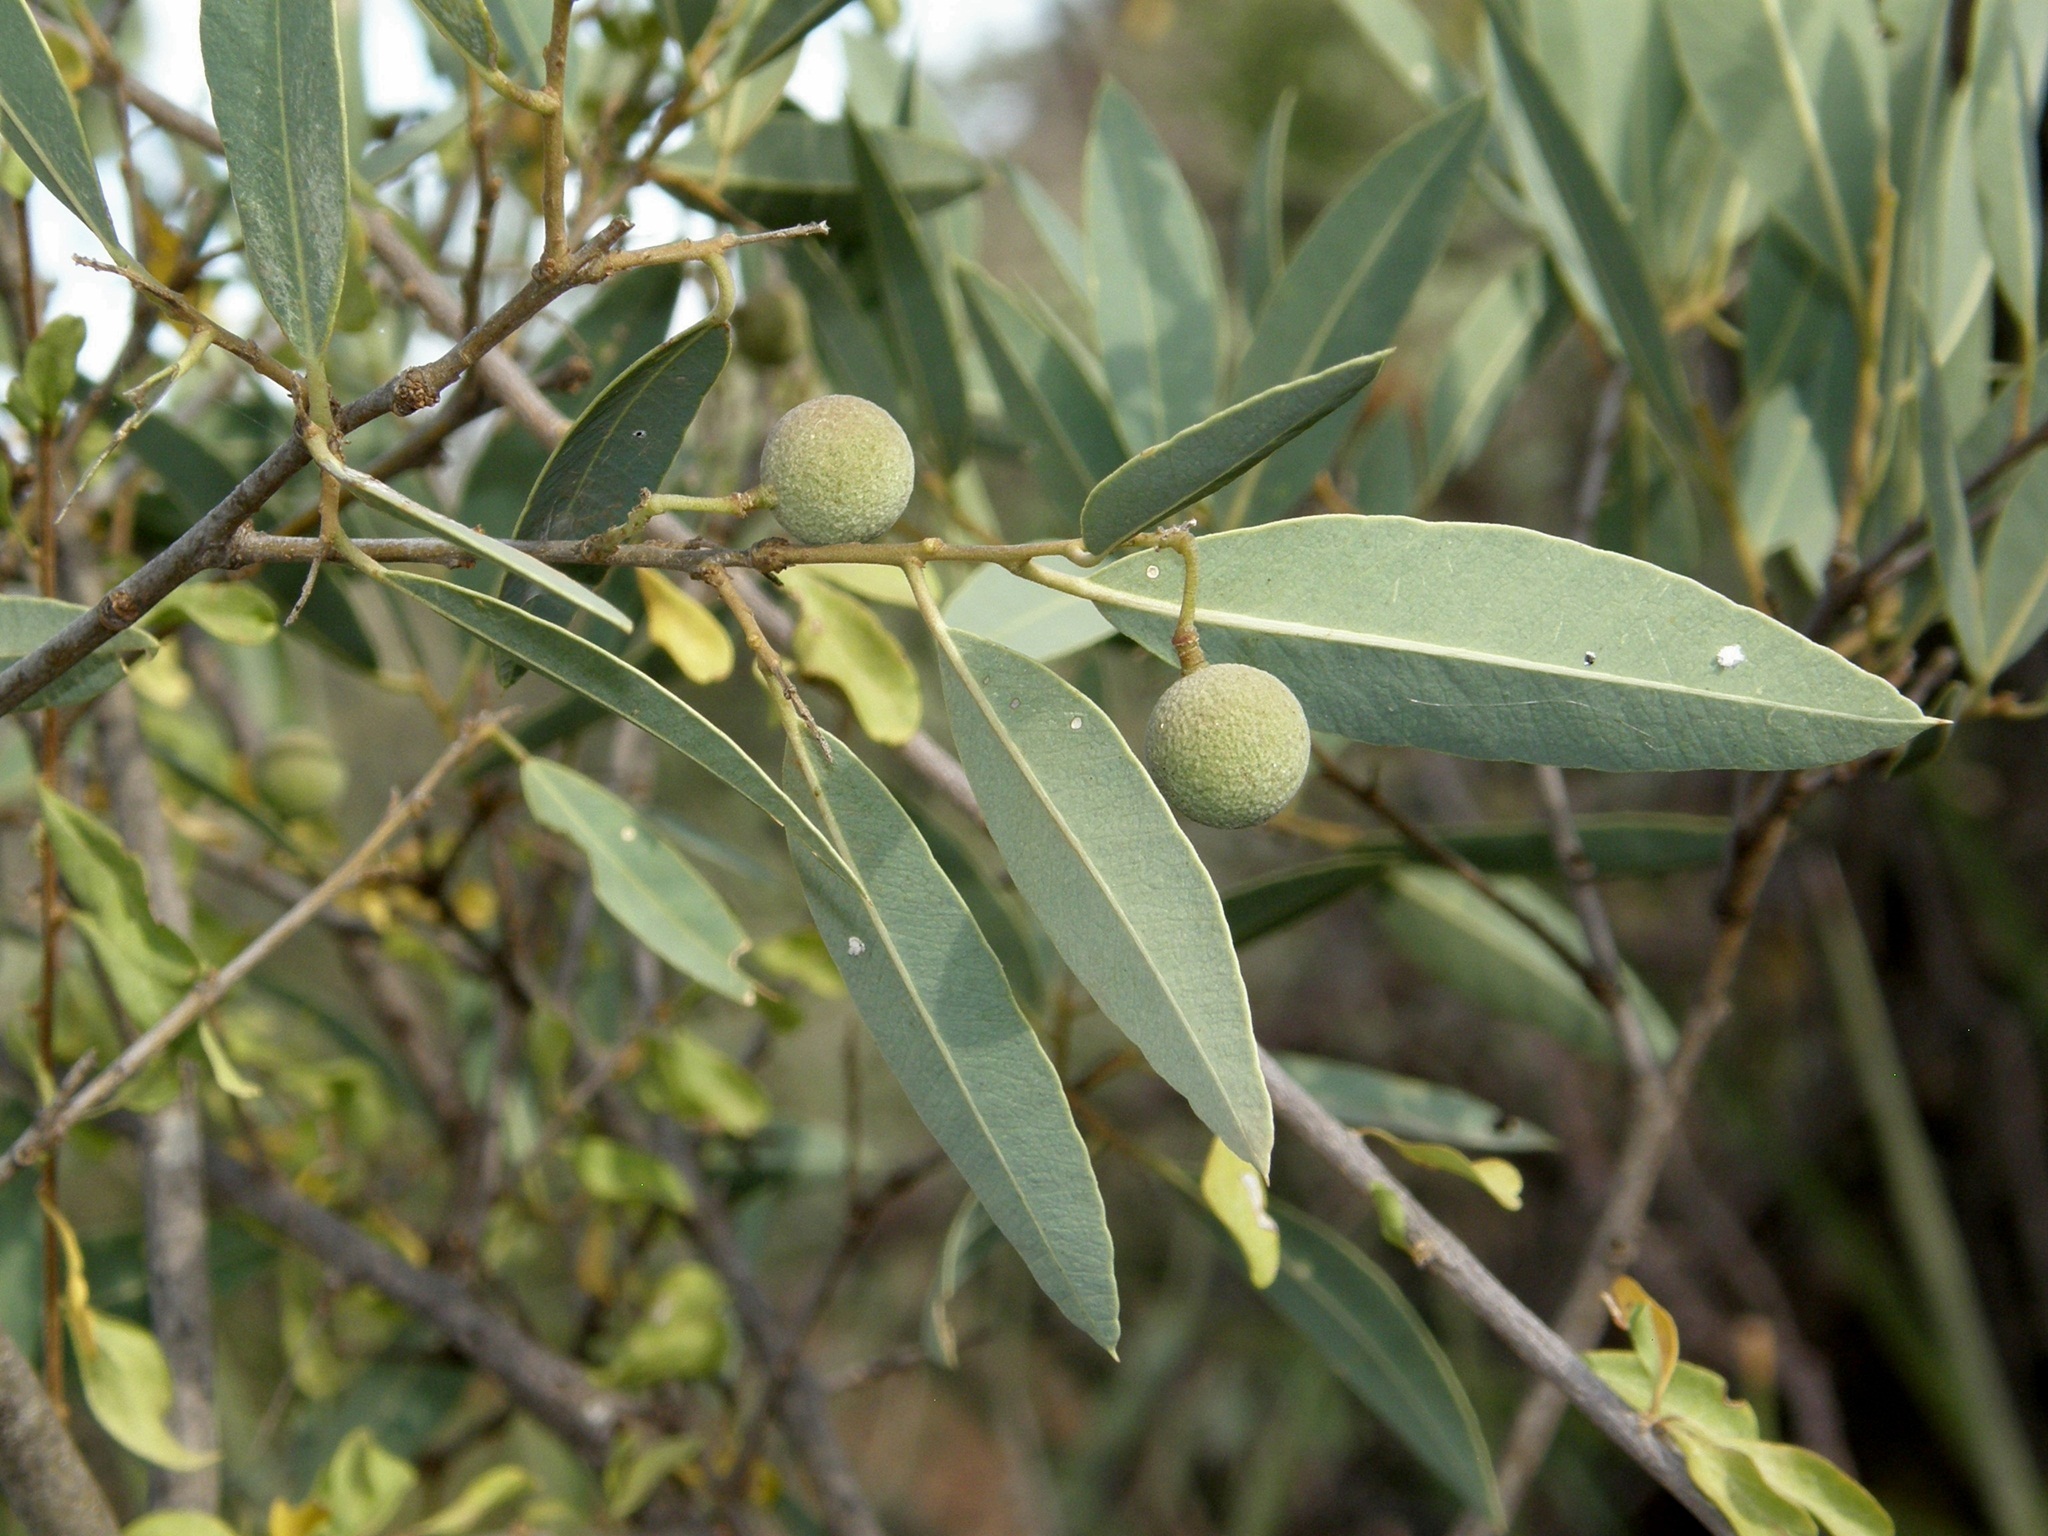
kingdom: Plantae
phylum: Tracheophyta
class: Magnoliopsida
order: Brassicales
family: Capparaceae
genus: Boscia
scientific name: Boscia coriacea
